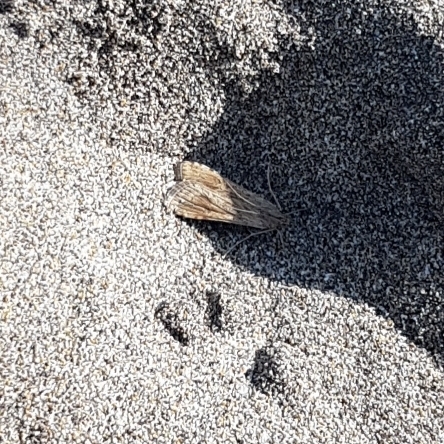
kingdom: Animalia
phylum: Arthropoda
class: Insecta
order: Lepidoptera
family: Crambidae
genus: Nomophila
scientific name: Nomophila noctuella
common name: Rush veneer
